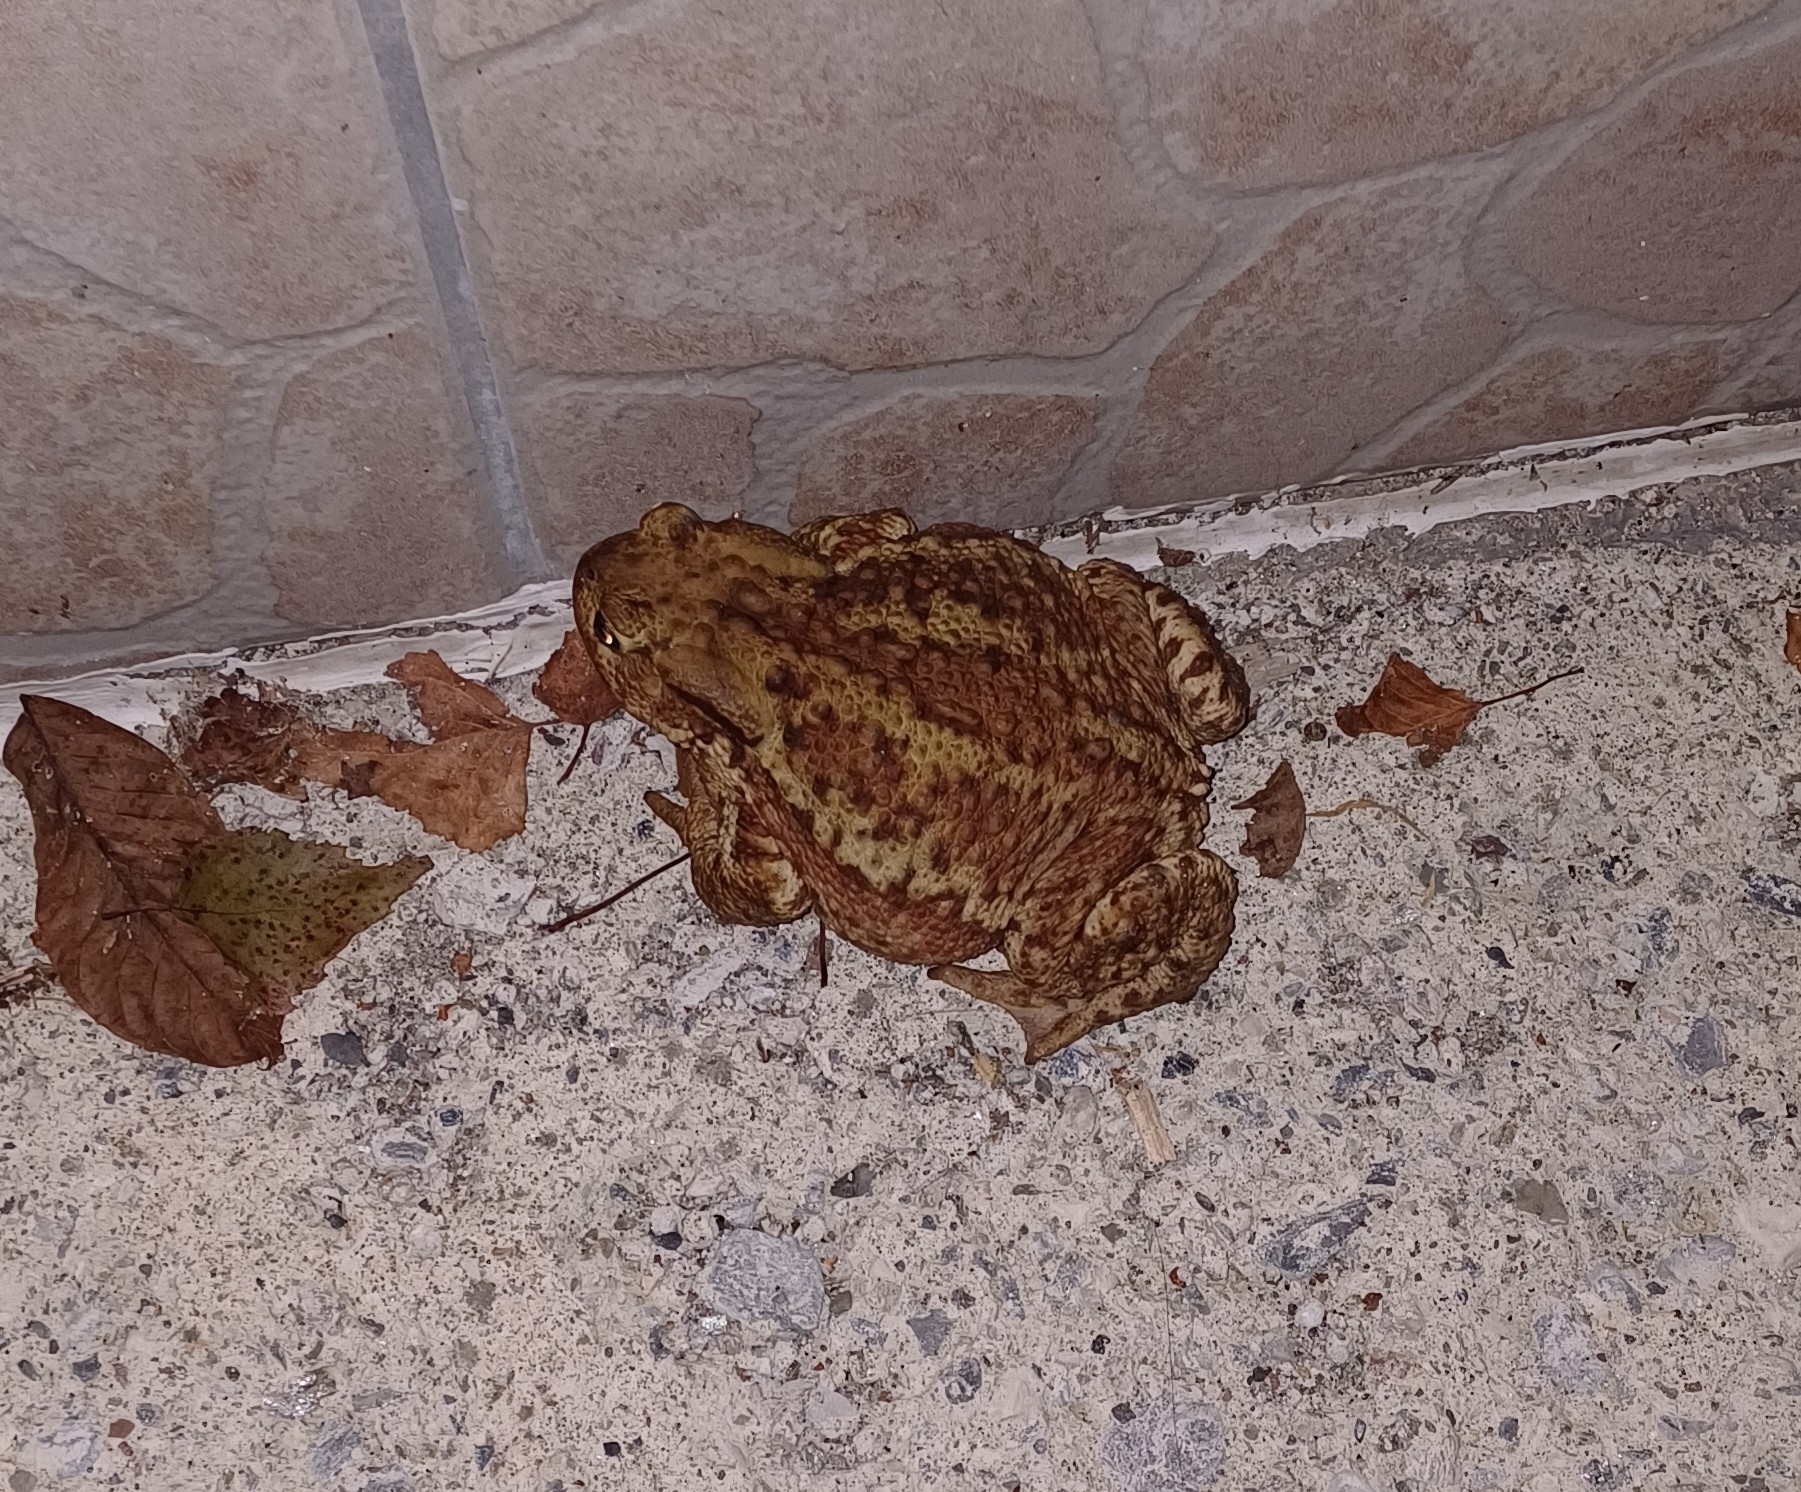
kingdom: Animalia
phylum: Chordata
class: Amphibia
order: Anura
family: Bufonidae
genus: Bufo
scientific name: Bufo bufo
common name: Common toad
